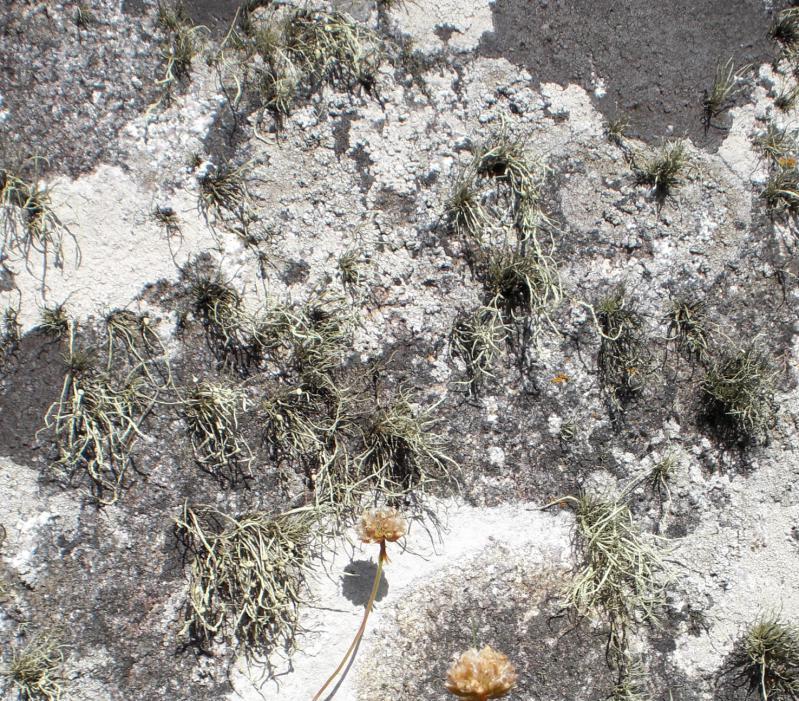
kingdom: Plantae
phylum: Tracheophyta
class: Magnoliopsida
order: Caryophyllales
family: Caryophyllaceae
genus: Silene
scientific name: Silene uniflora
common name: Sea campion
